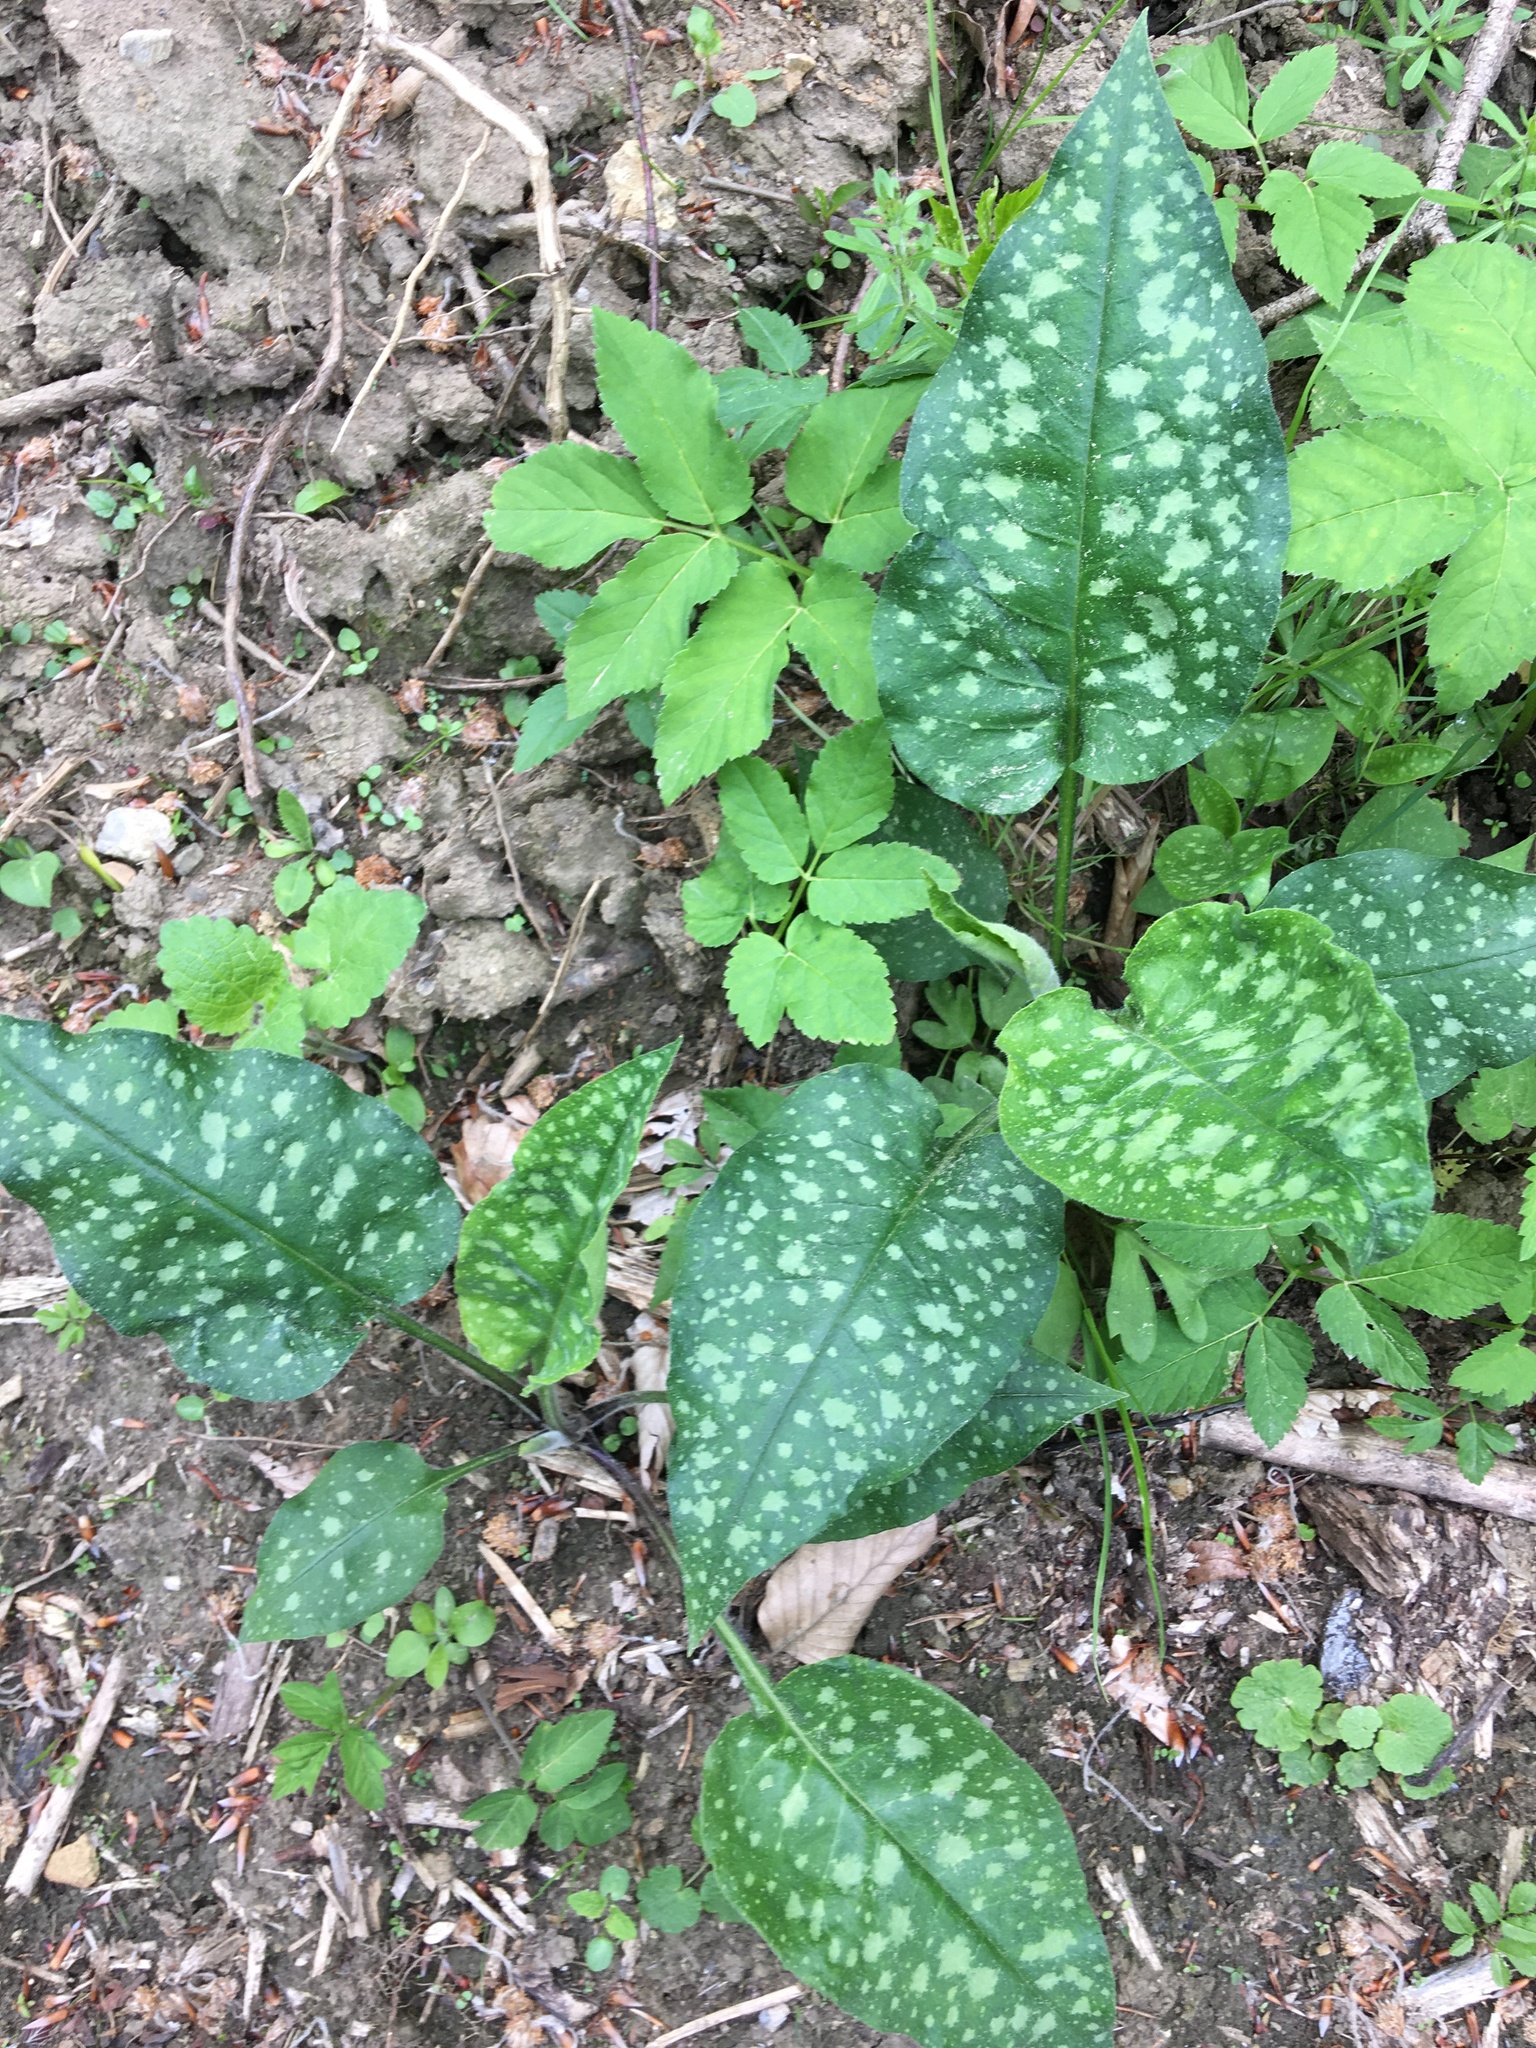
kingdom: Plantae
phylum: Tracheophyta
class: Magnoliopsida
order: Boraginales
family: Boraginaceae
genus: Pulmonaria
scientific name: Pulmonaria officinalis
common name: Lungwort
